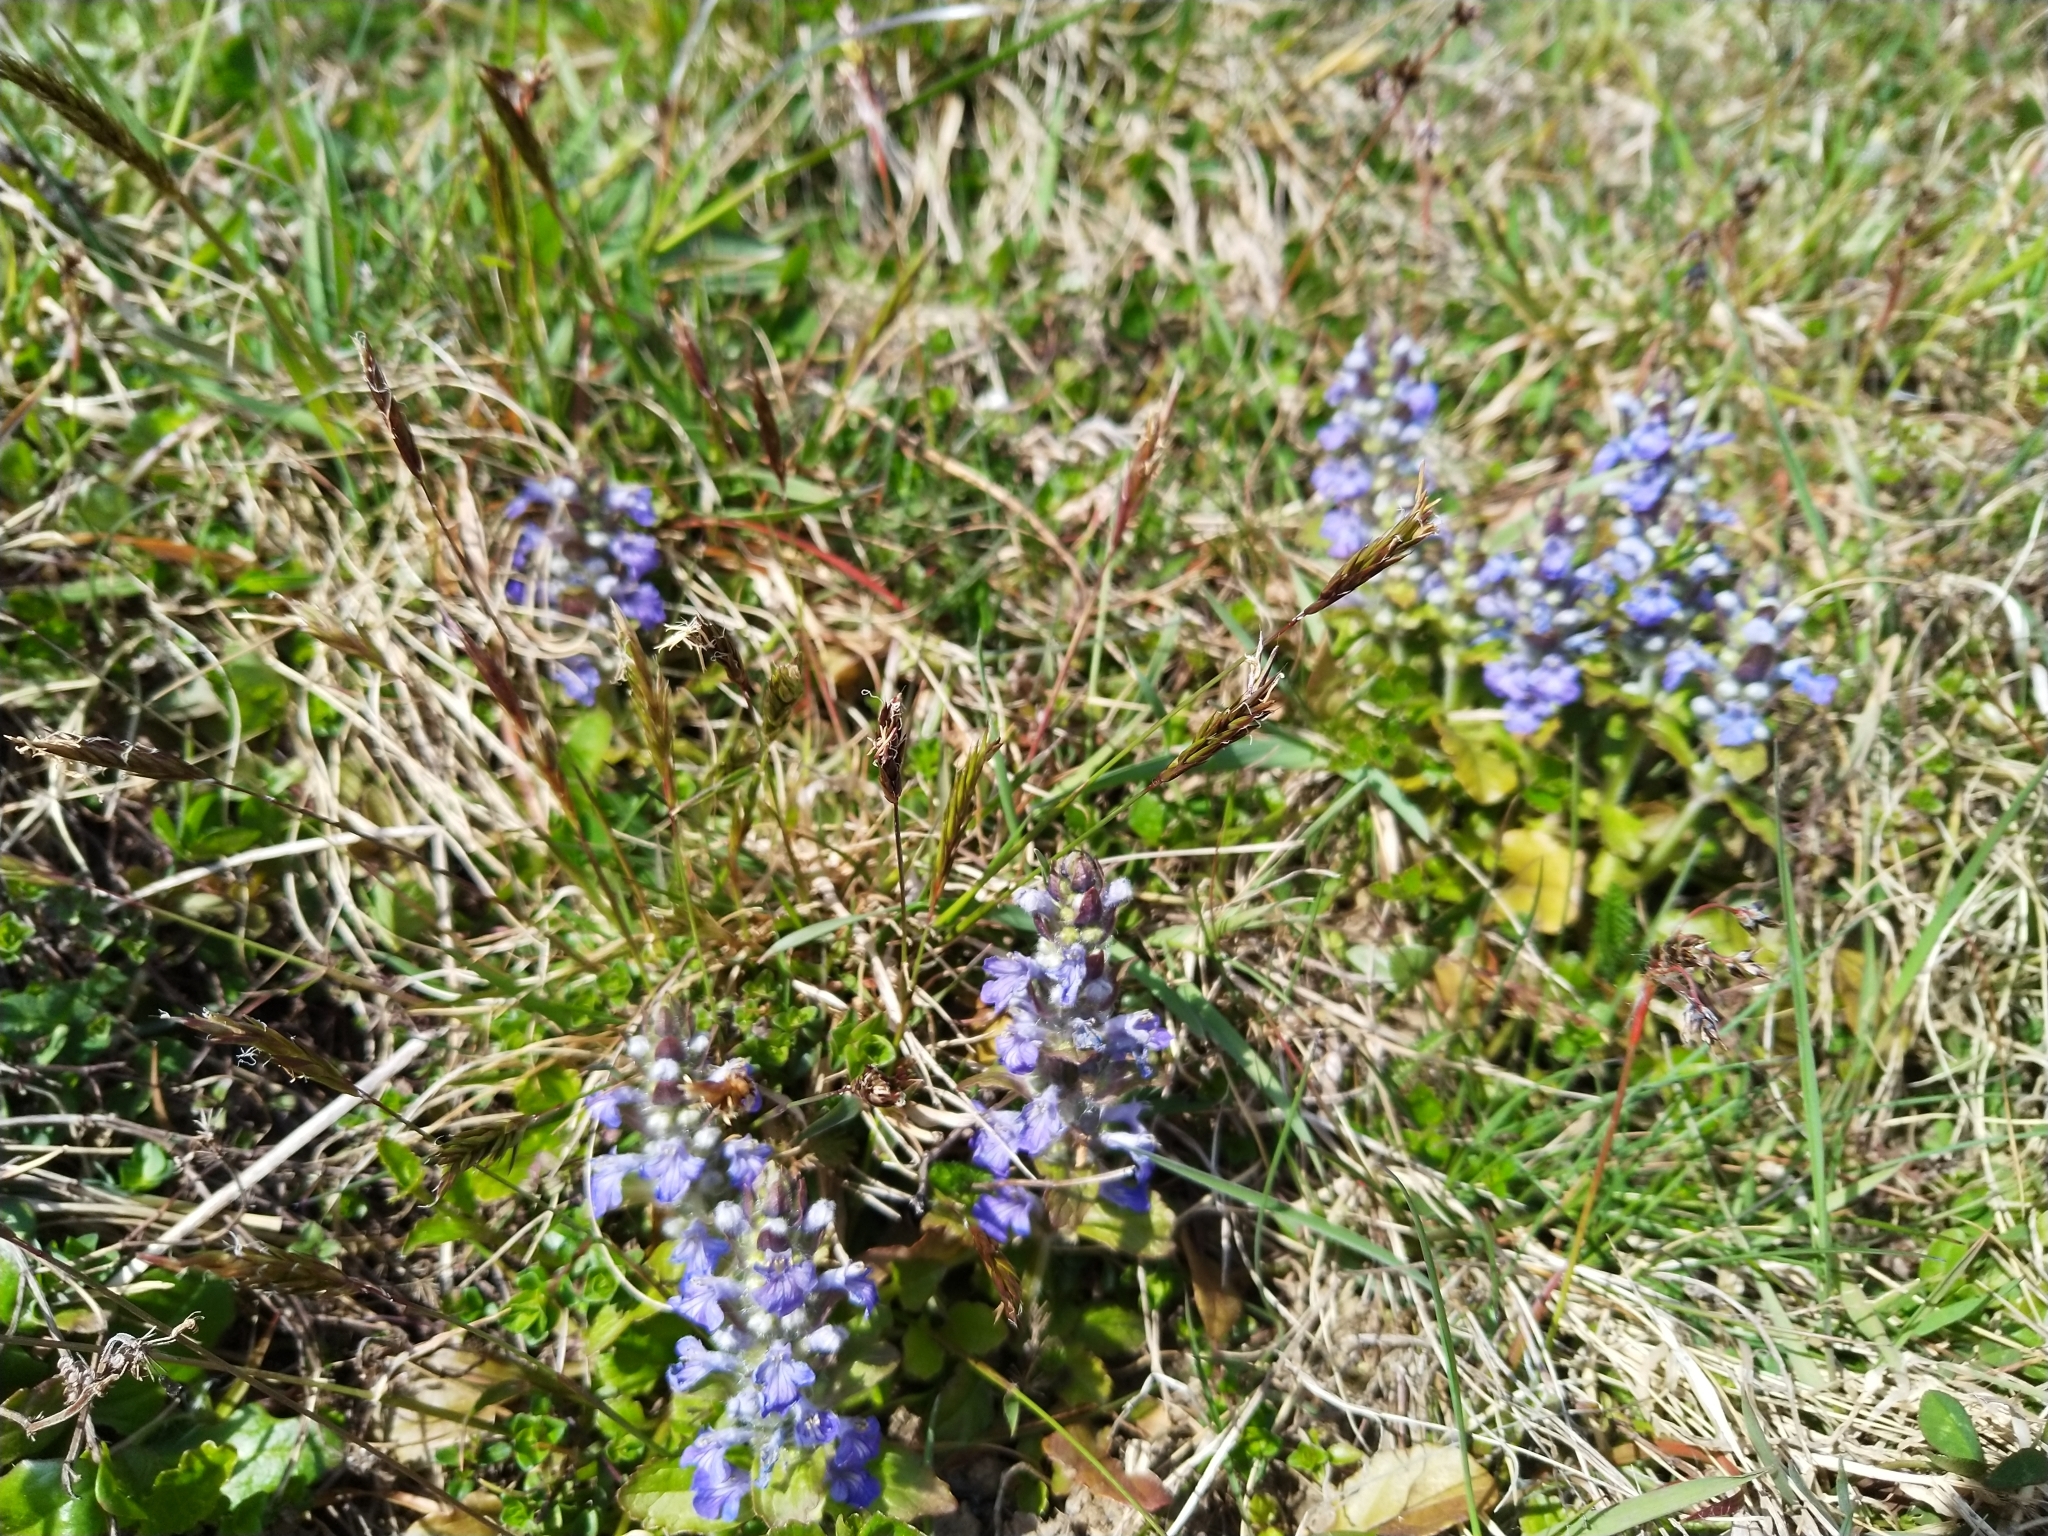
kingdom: Plantae
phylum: Tracheophyta
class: Magnoliopsida
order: Lamiales
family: Lamiaceae
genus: Ajuga
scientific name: Ajuga reptans
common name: Bugle
